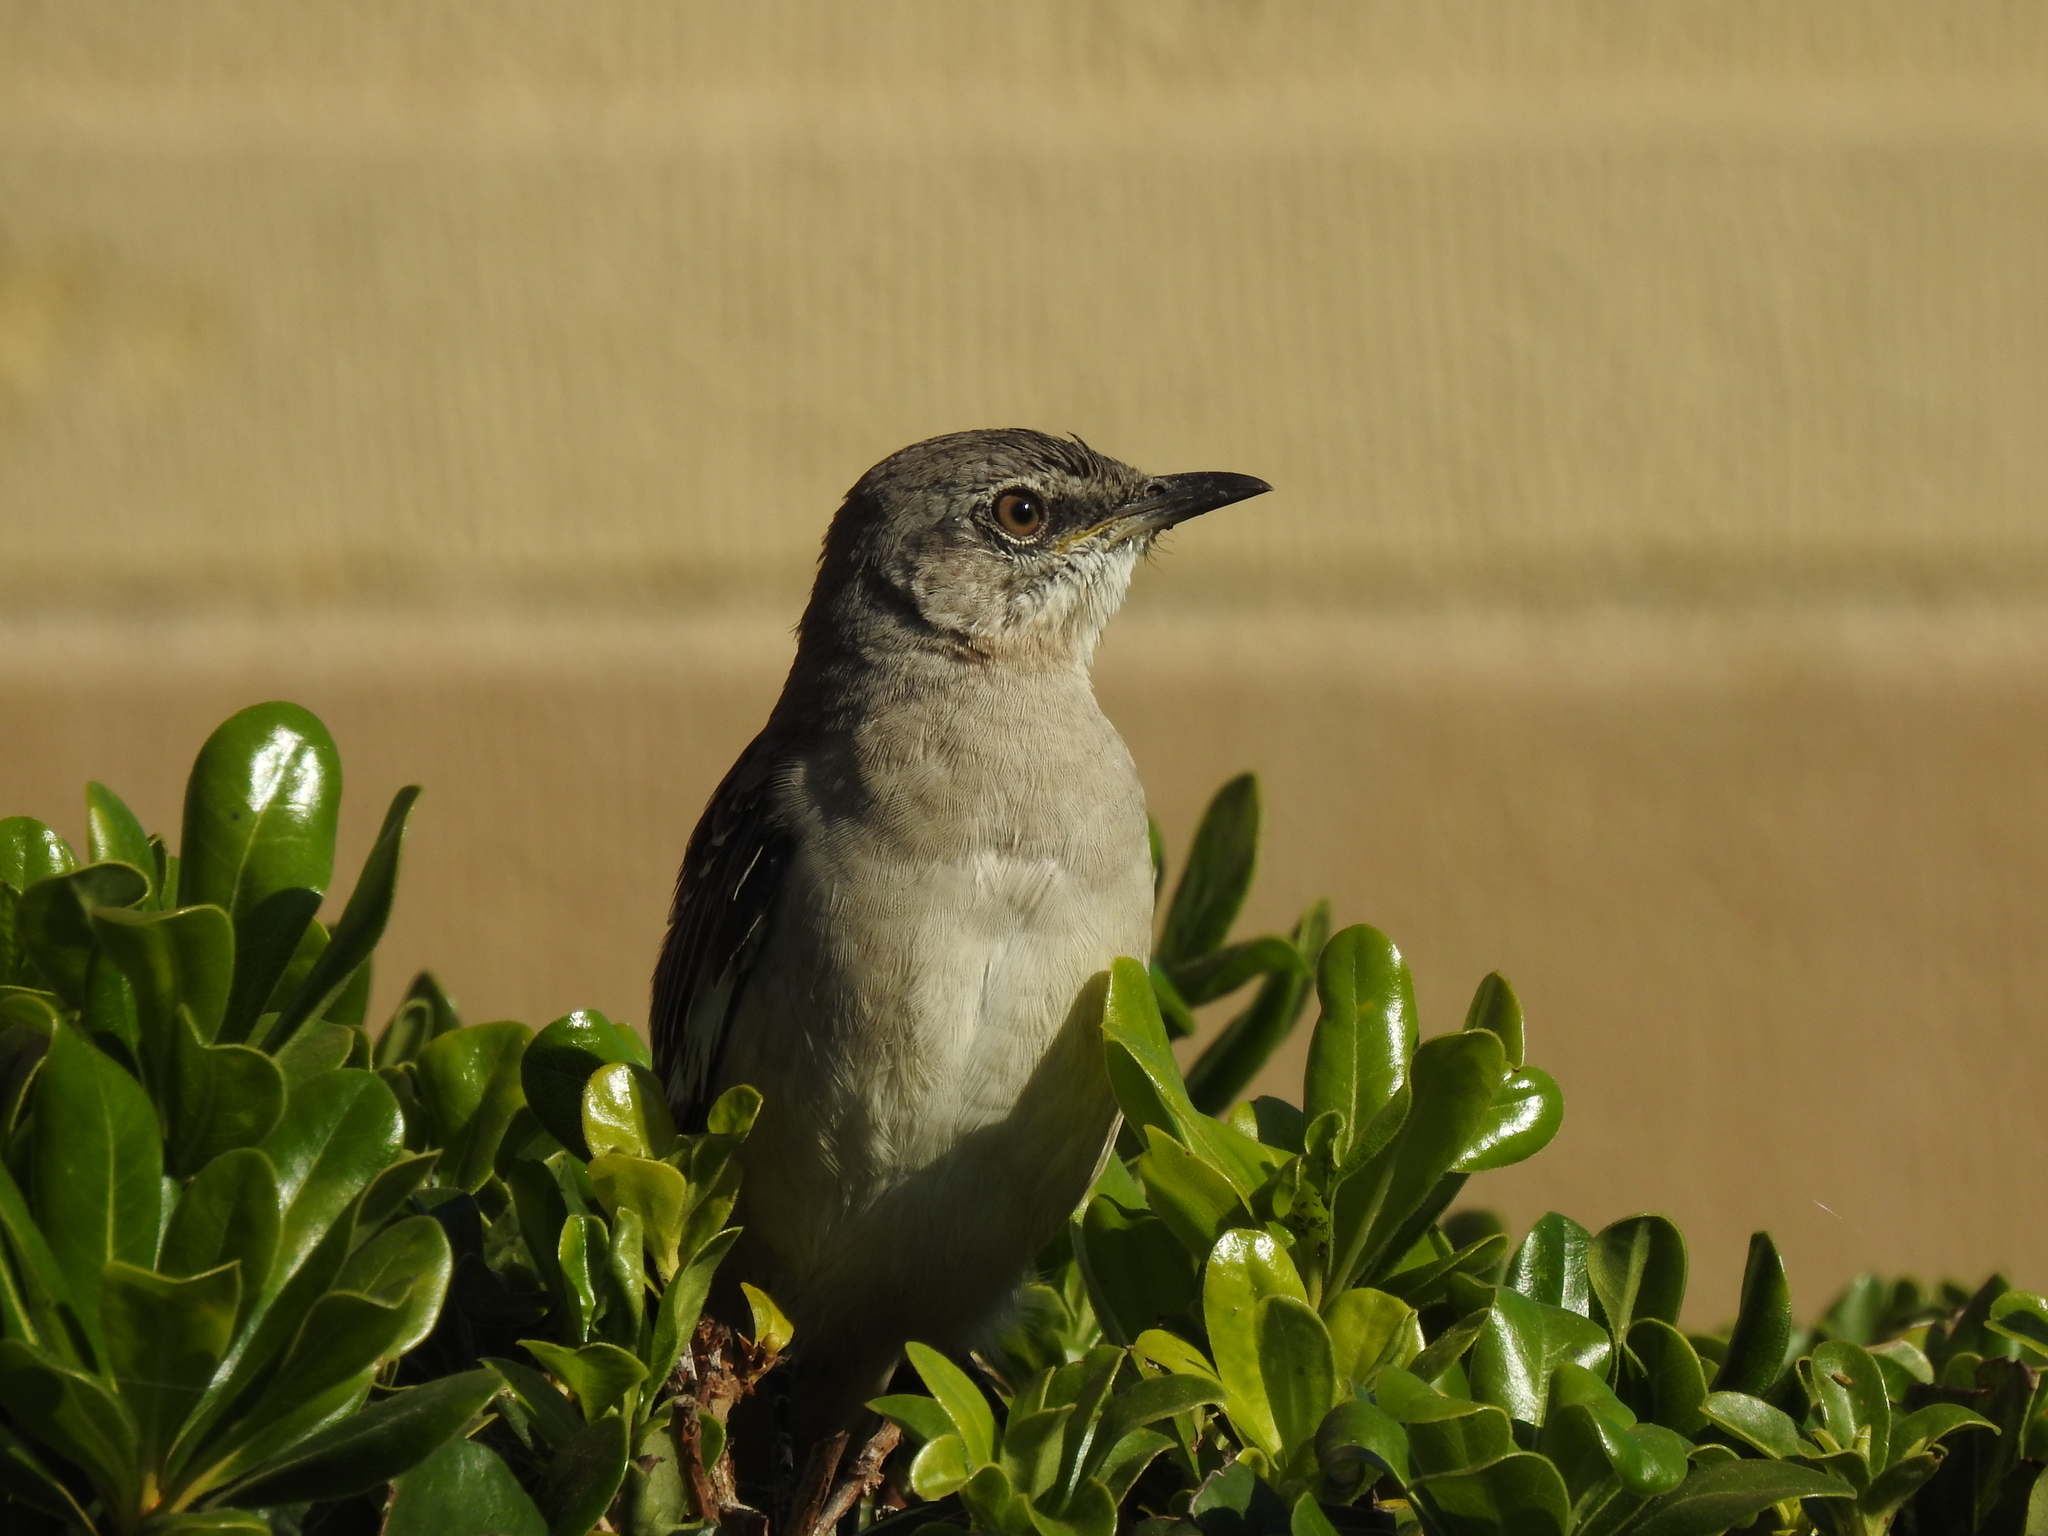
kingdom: Animalia
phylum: Chordata
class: Aves
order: Passeriformes
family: Mimidae
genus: Mimus
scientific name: Mimus polyglottos
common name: Northern mockingbird
